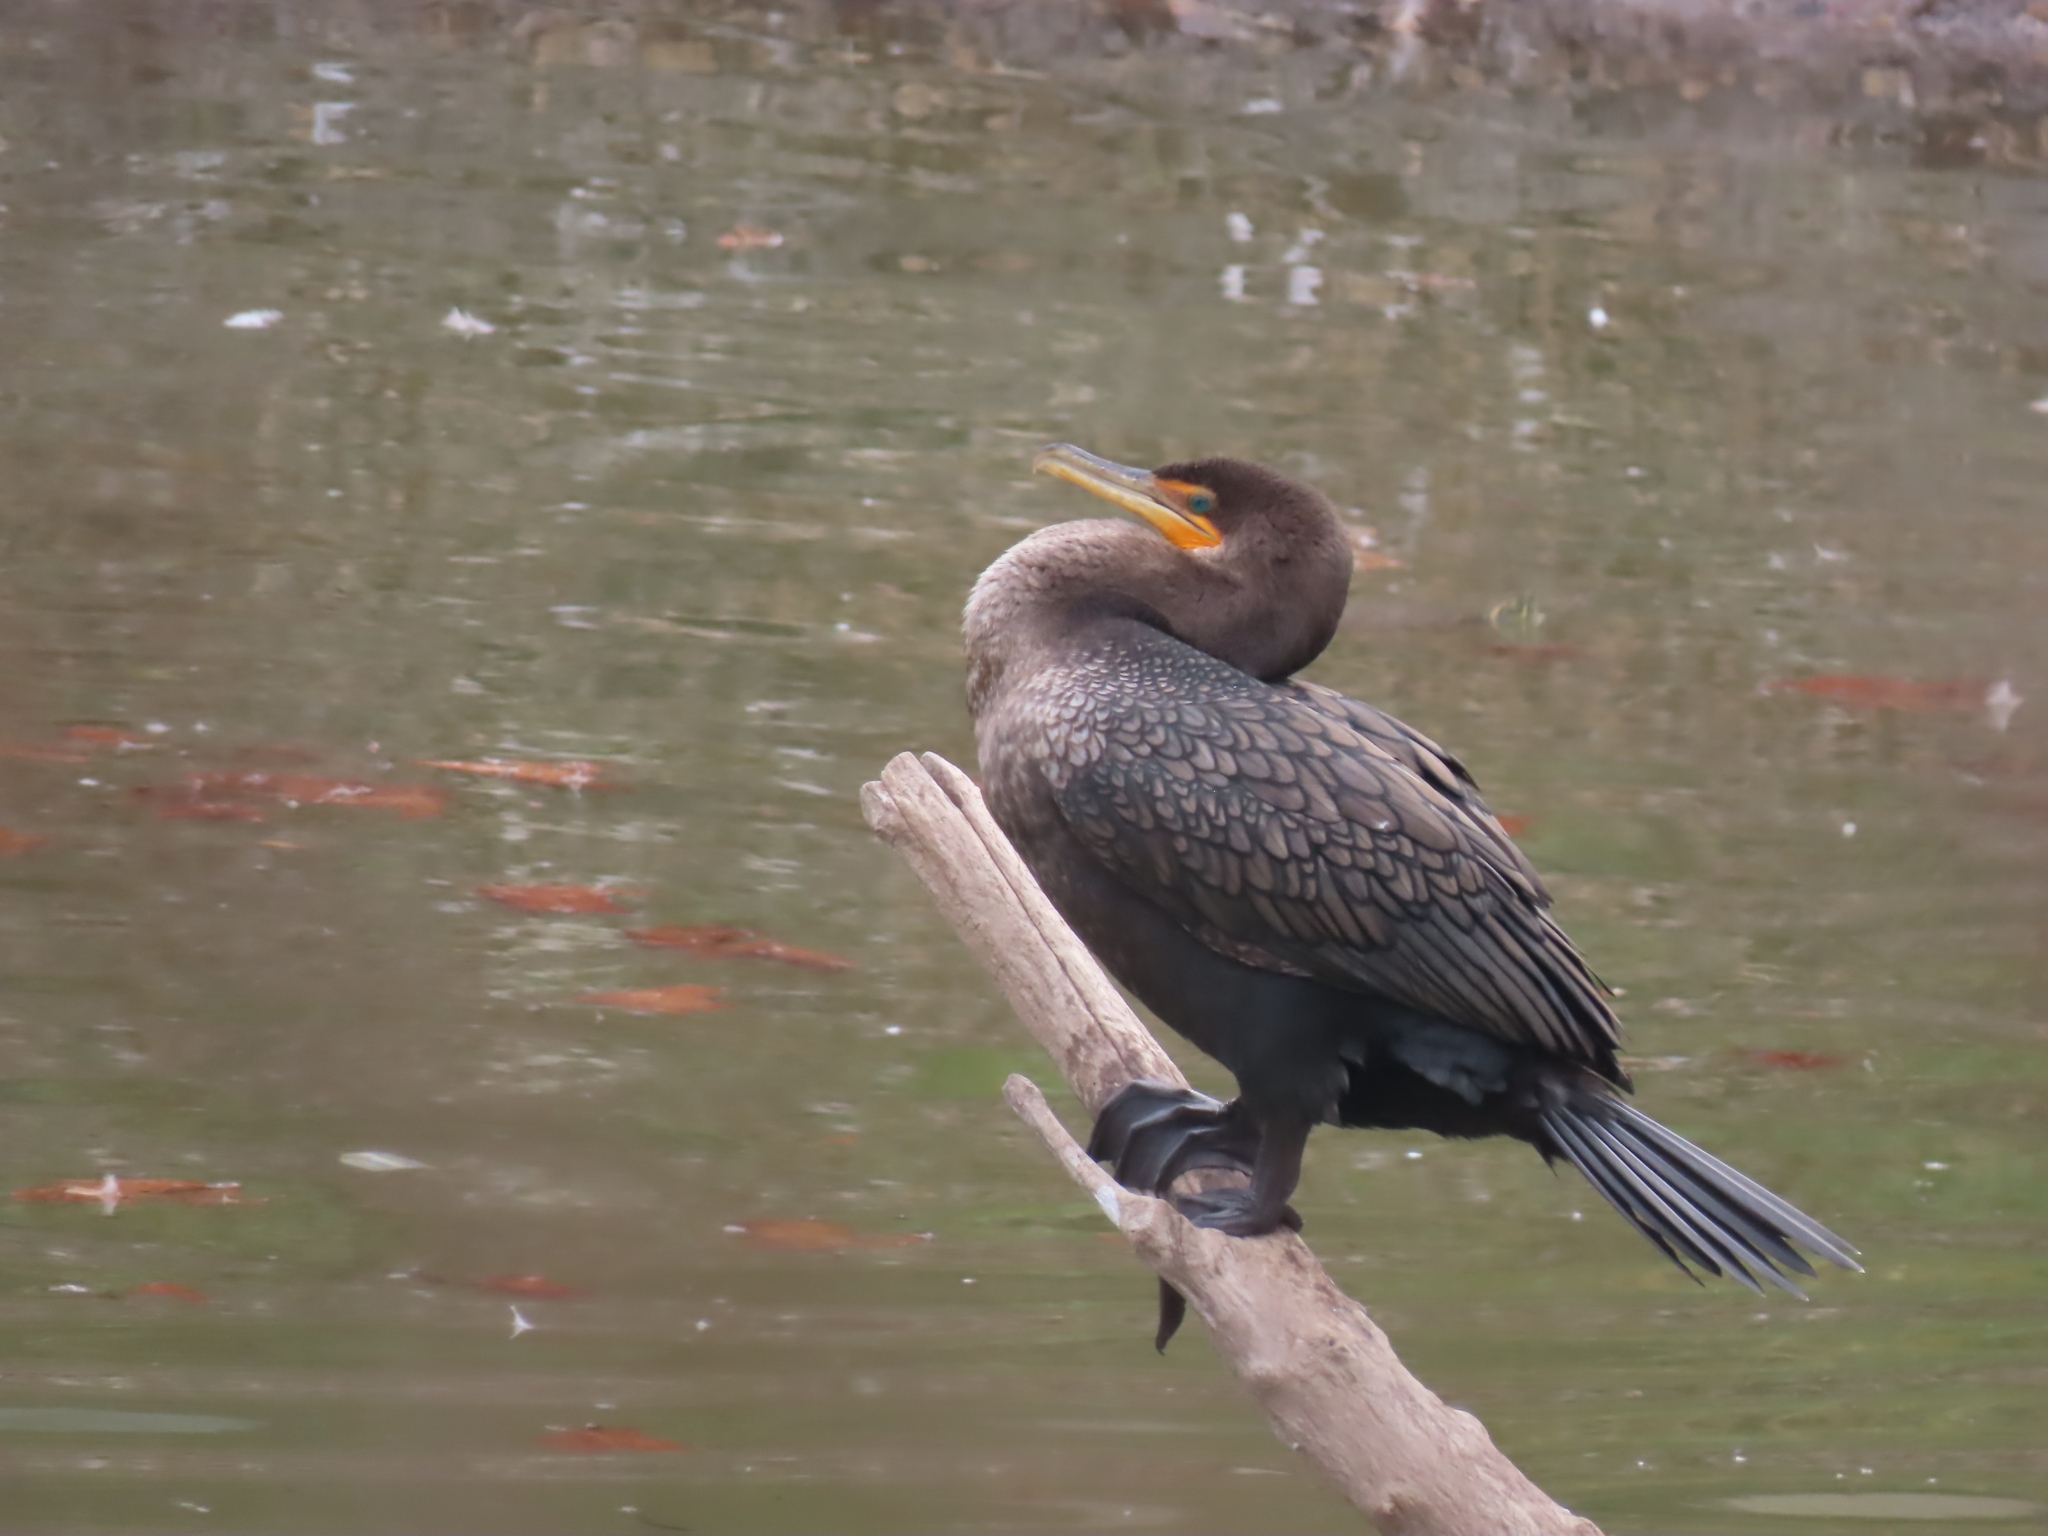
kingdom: Animalia
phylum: Chordata
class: Aves
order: Suliformes
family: Phalacrocoracidae
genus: Phalacrocorax
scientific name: Phalacrocorax auritus
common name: Double-crested cormorant
